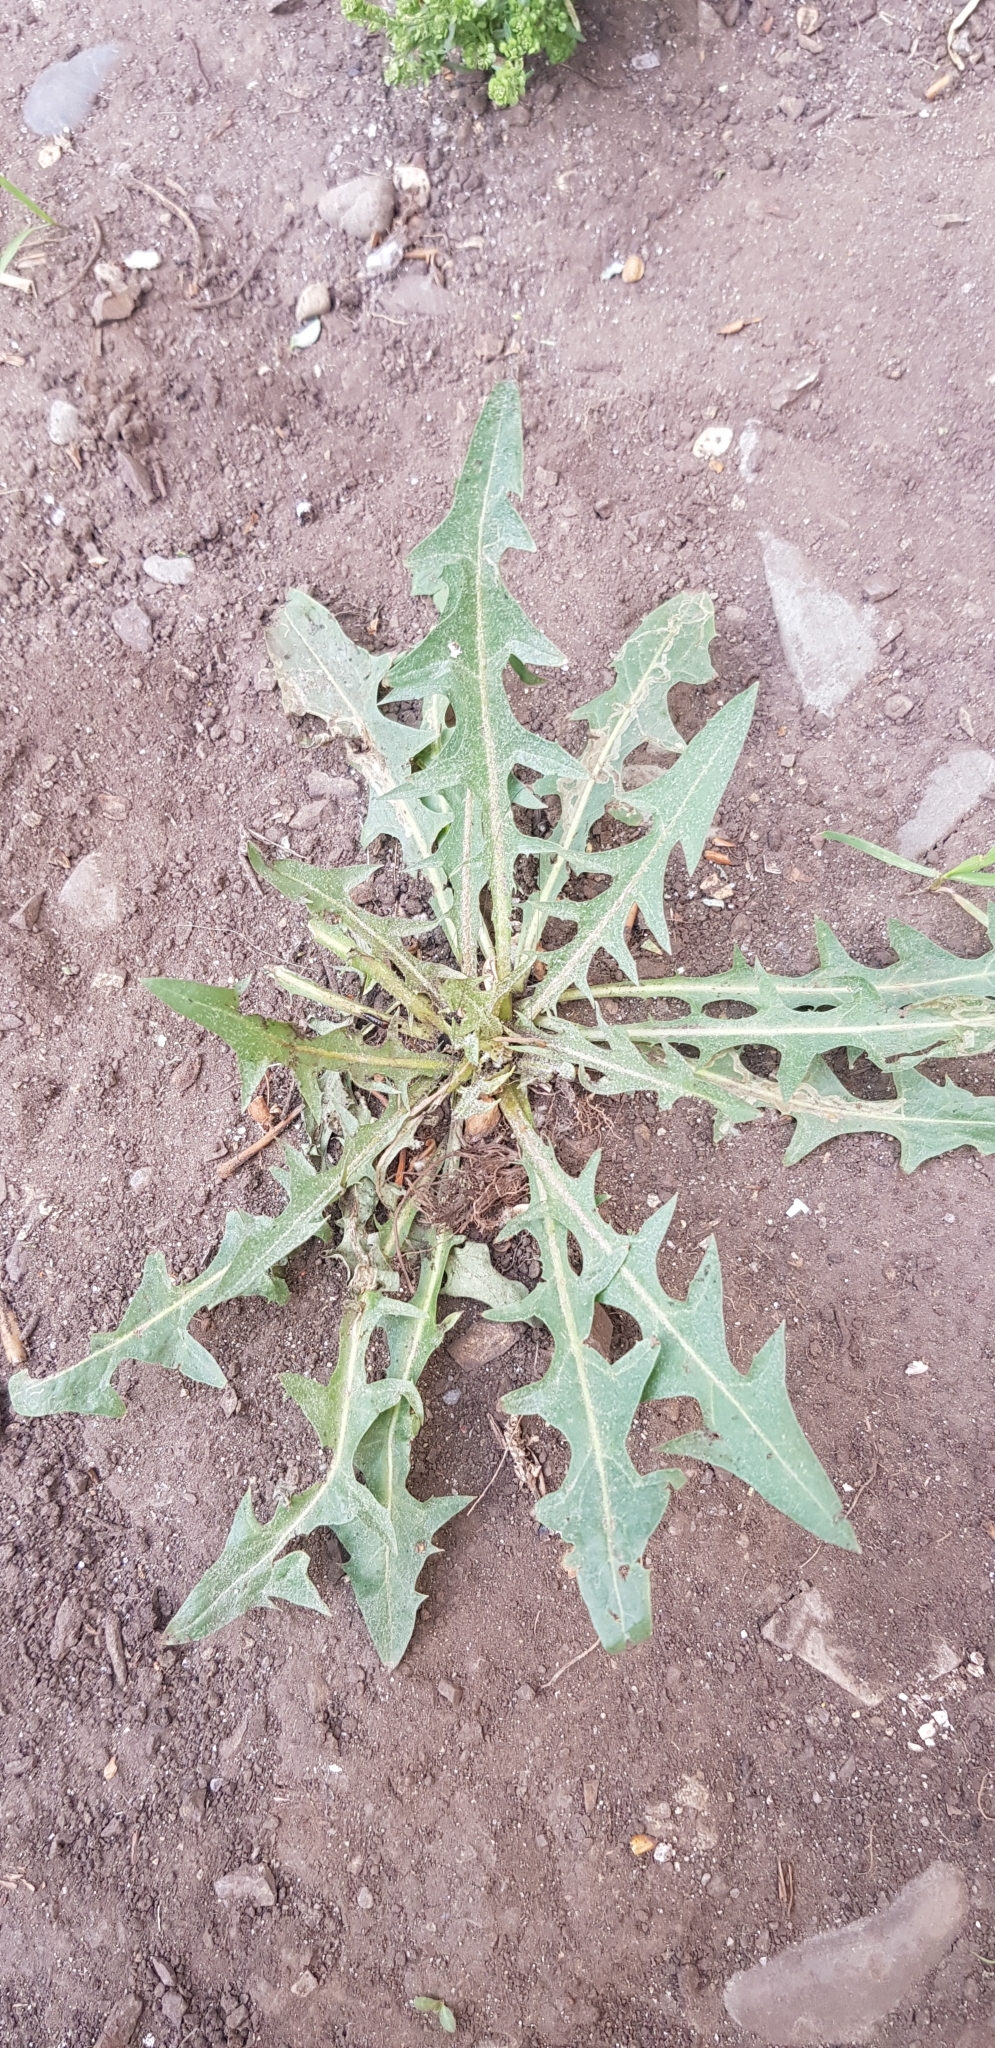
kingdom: Plantae
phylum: Tracheophyta
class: Magnoliopsida
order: Asterales
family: Asteraceae
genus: Taraxacum
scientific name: Taraxacum officinale
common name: Common dandelion
